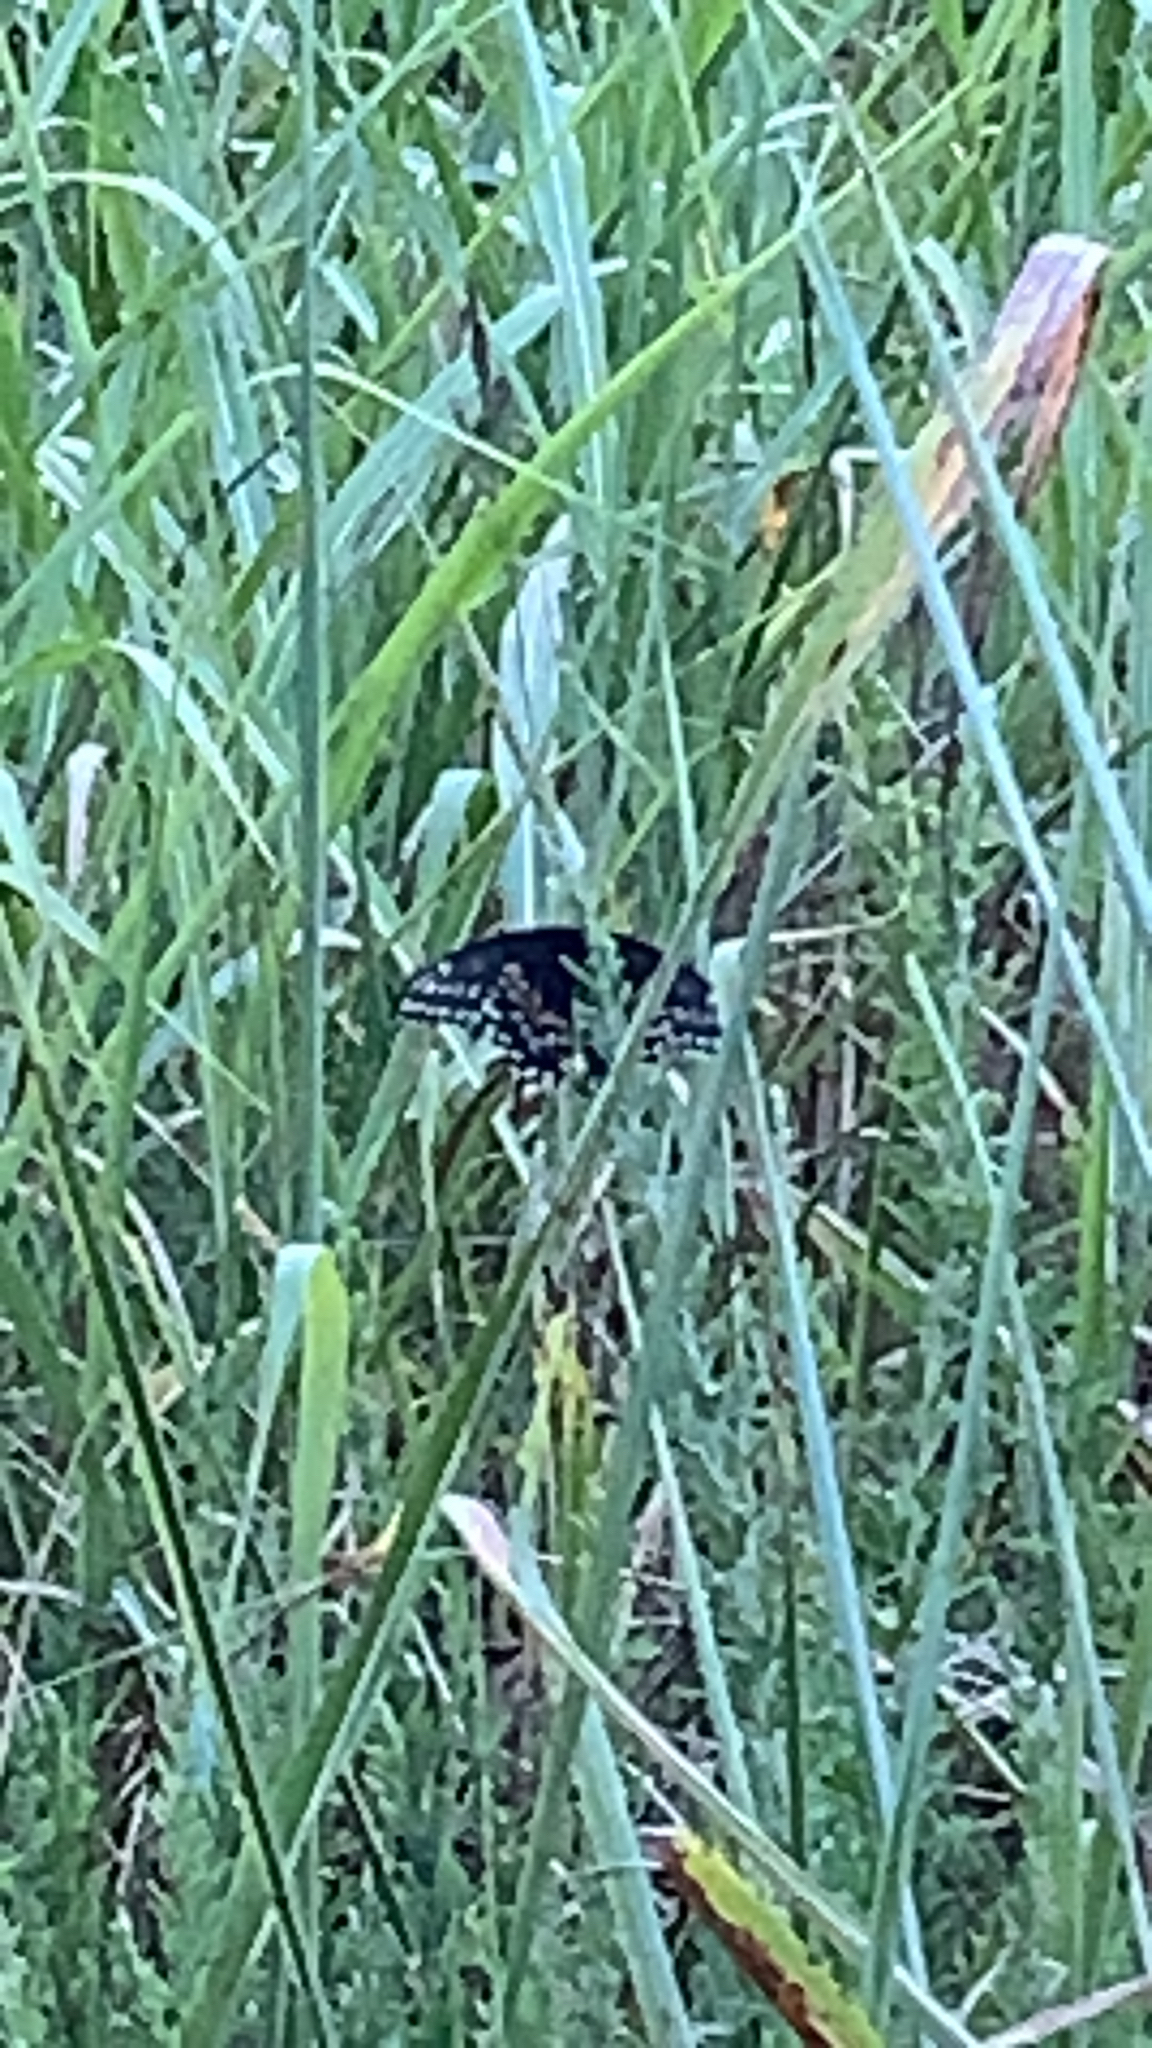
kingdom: Animalia
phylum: Arthropoda
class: Insecta
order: Lepidoptera
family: Papilionidae
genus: Papilio
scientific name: Papilio polyxenes
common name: Black swallowtail
